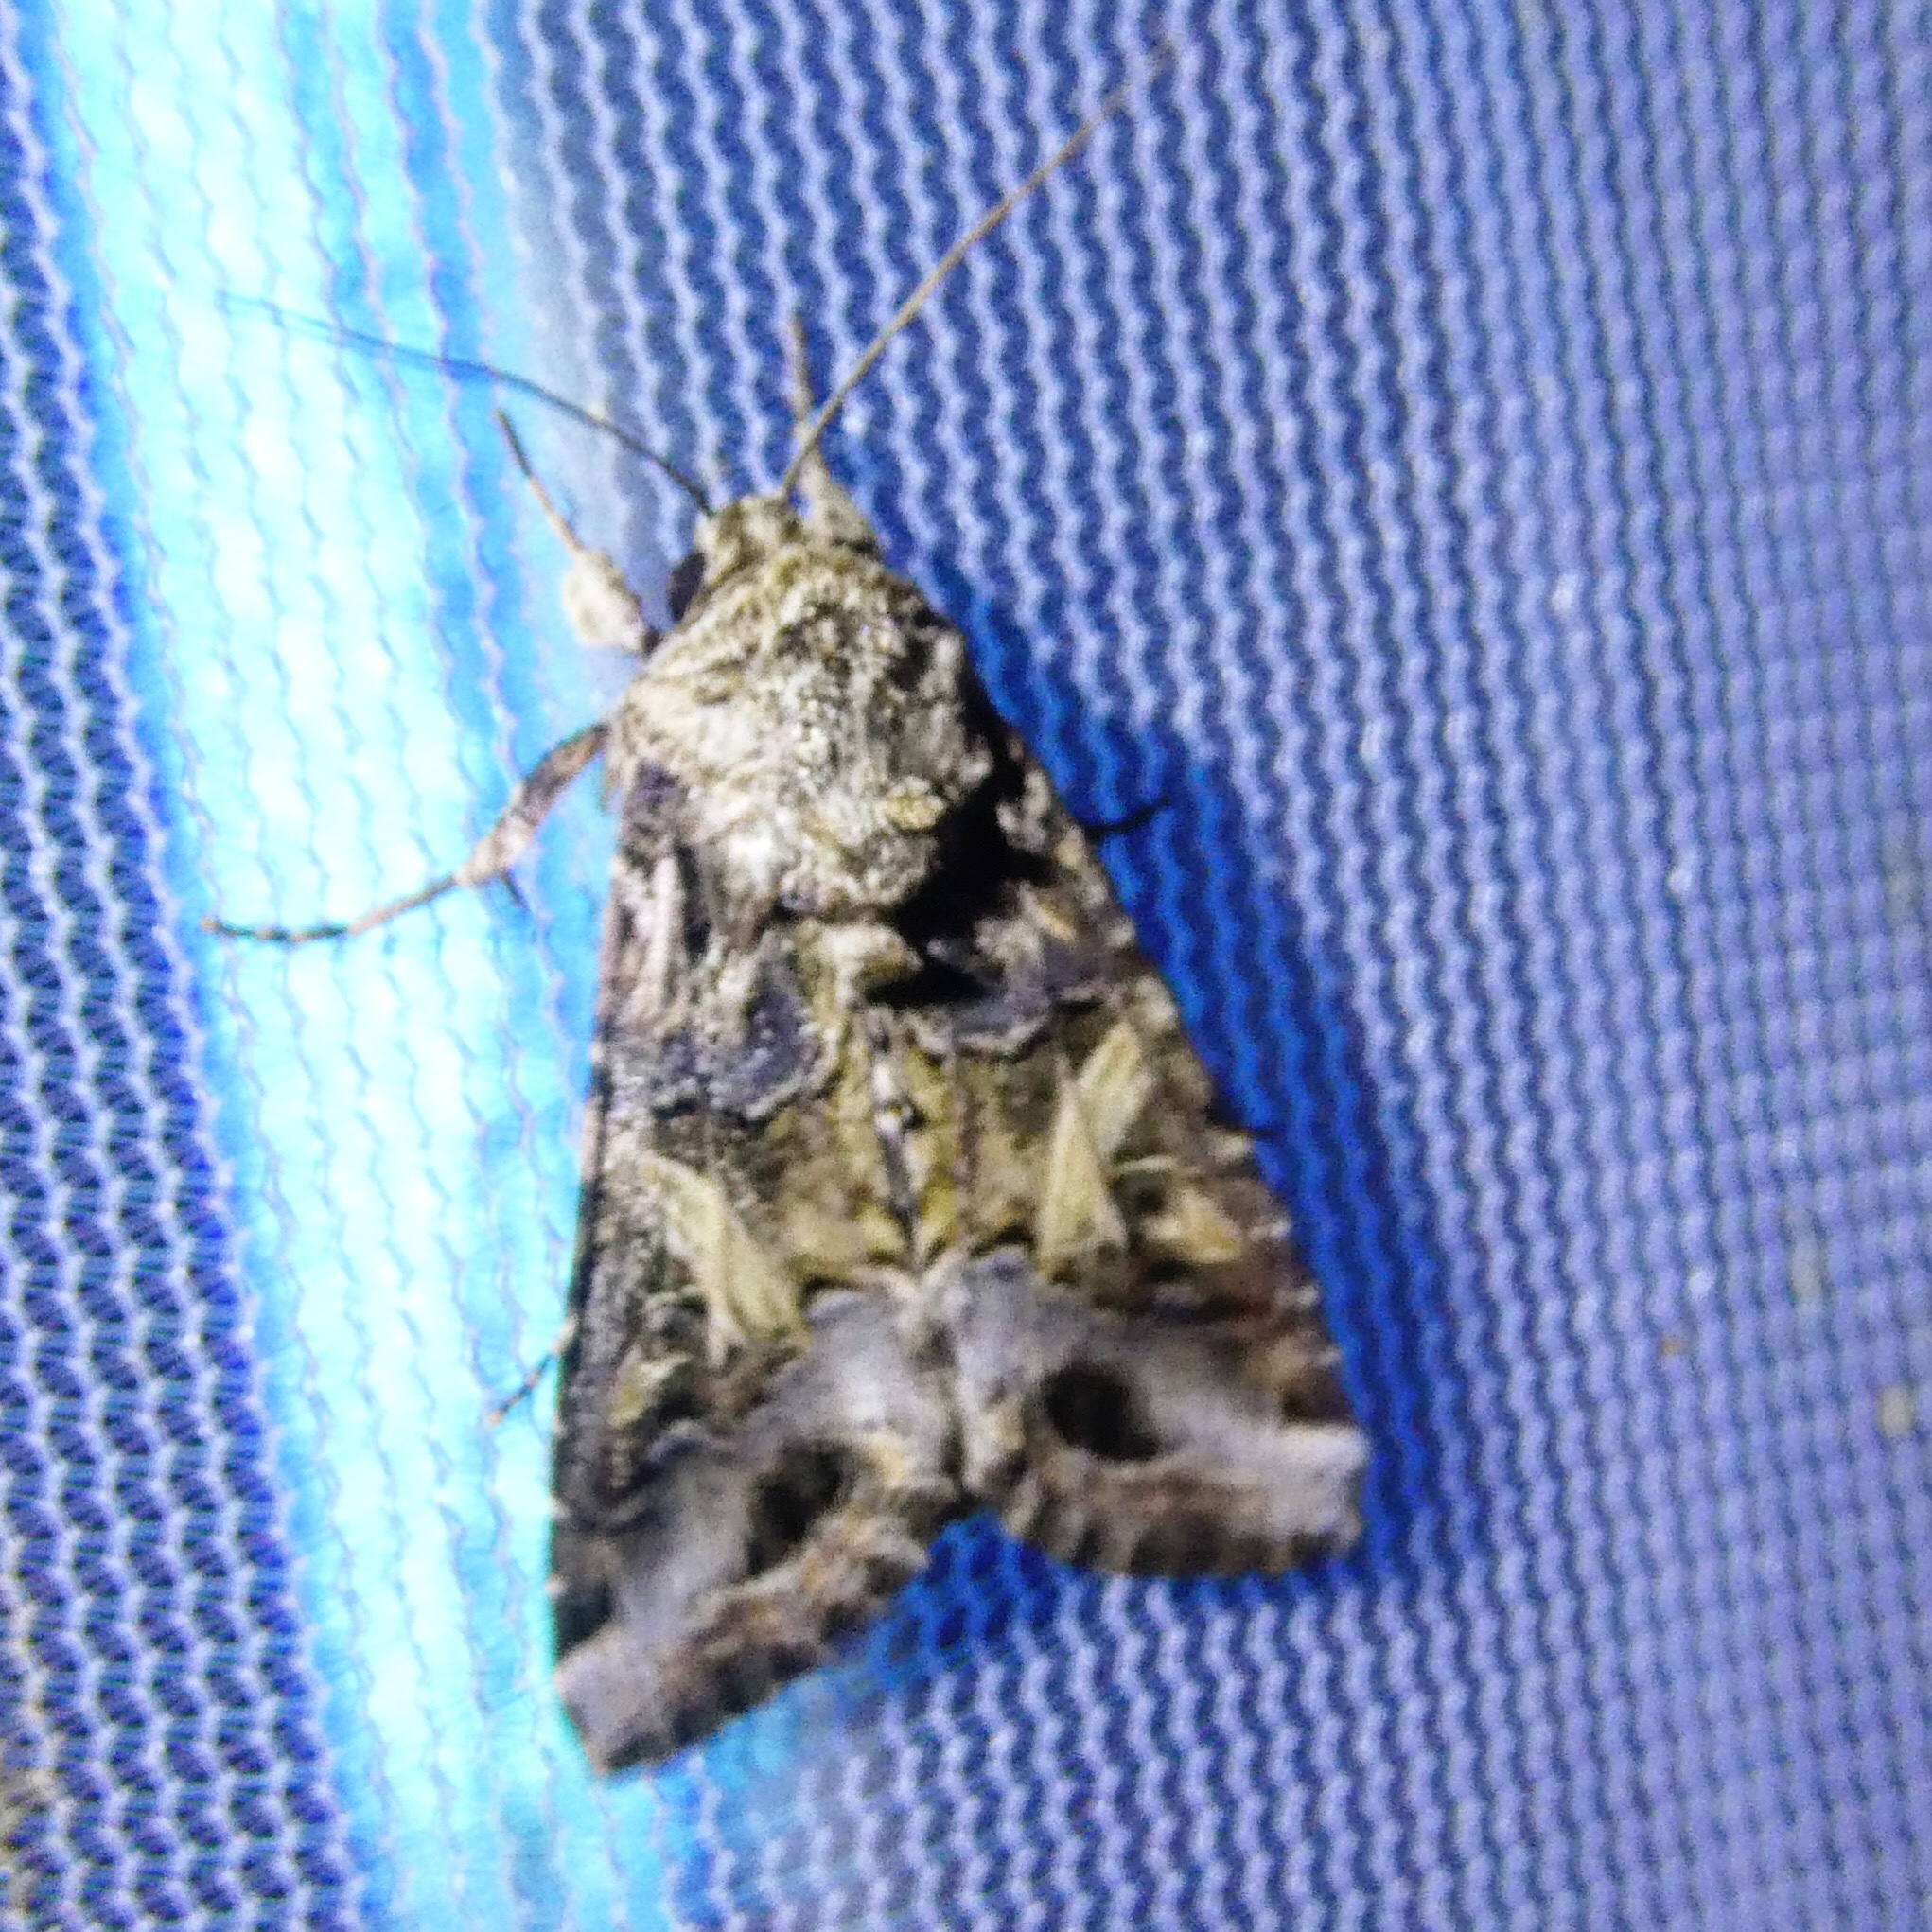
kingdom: Animalia
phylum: Arthropoda
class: Insecta
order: Lepidoptera
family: Noctuidae
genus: Spodoptera
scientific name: Spodoptera ornithogalli
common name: Yellow-striped armyworm
